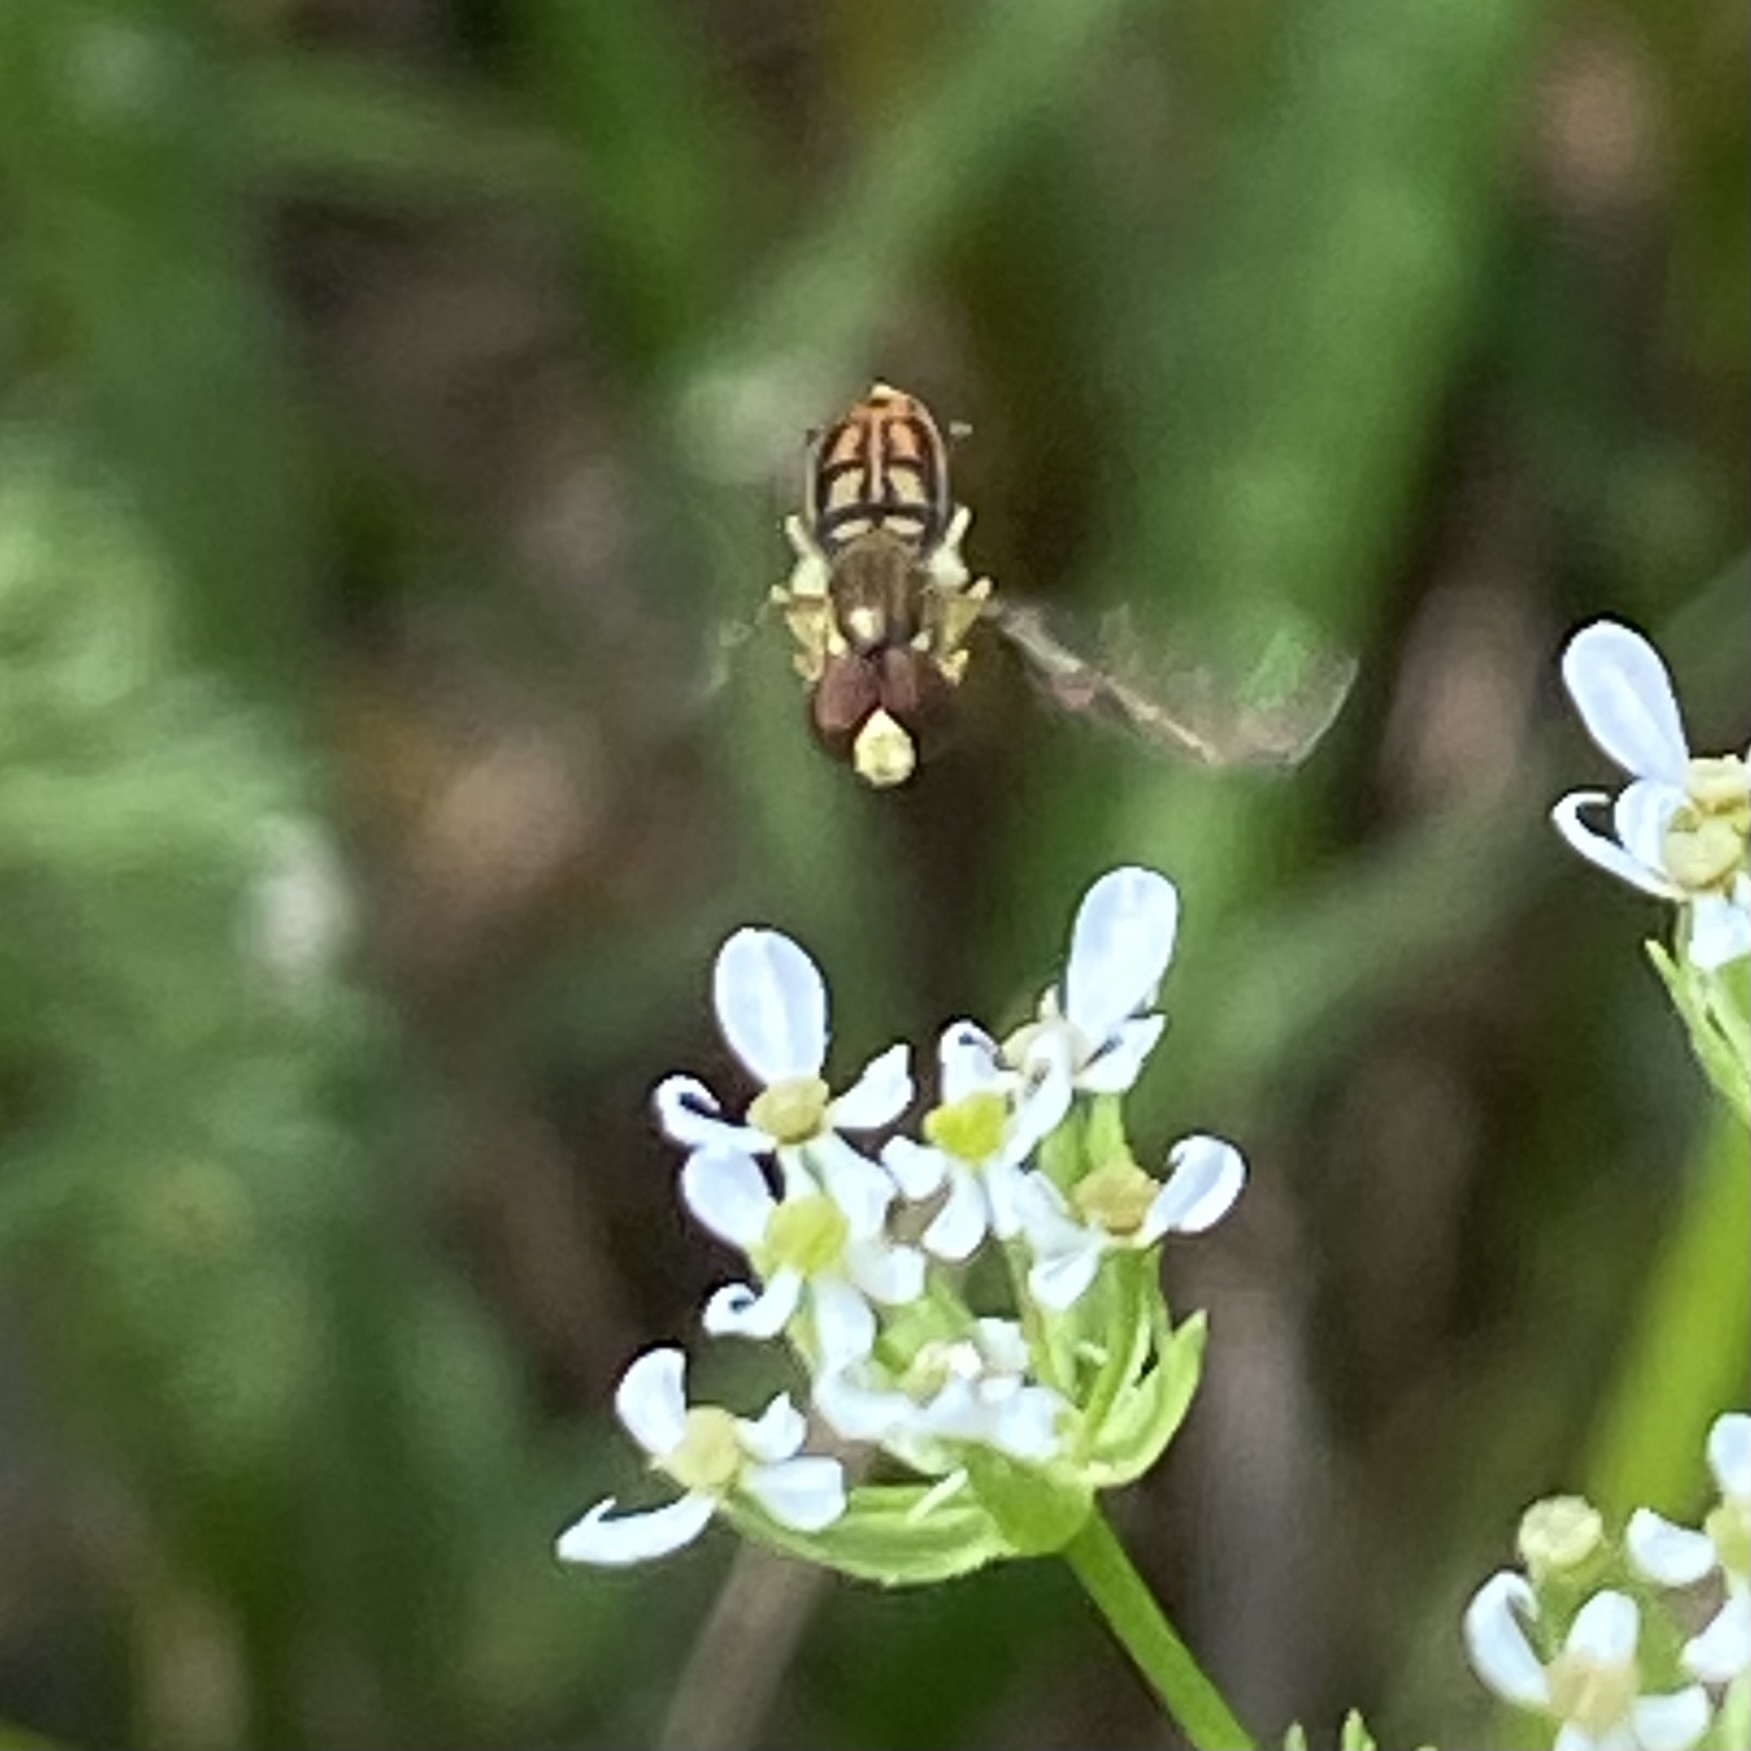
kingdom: Animalia
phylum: Arthropoda
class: Insecta
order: Diptera
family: Syrphidae
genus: Toxomerus
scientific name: Toxomerus marginatus
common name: Syrphid fly
